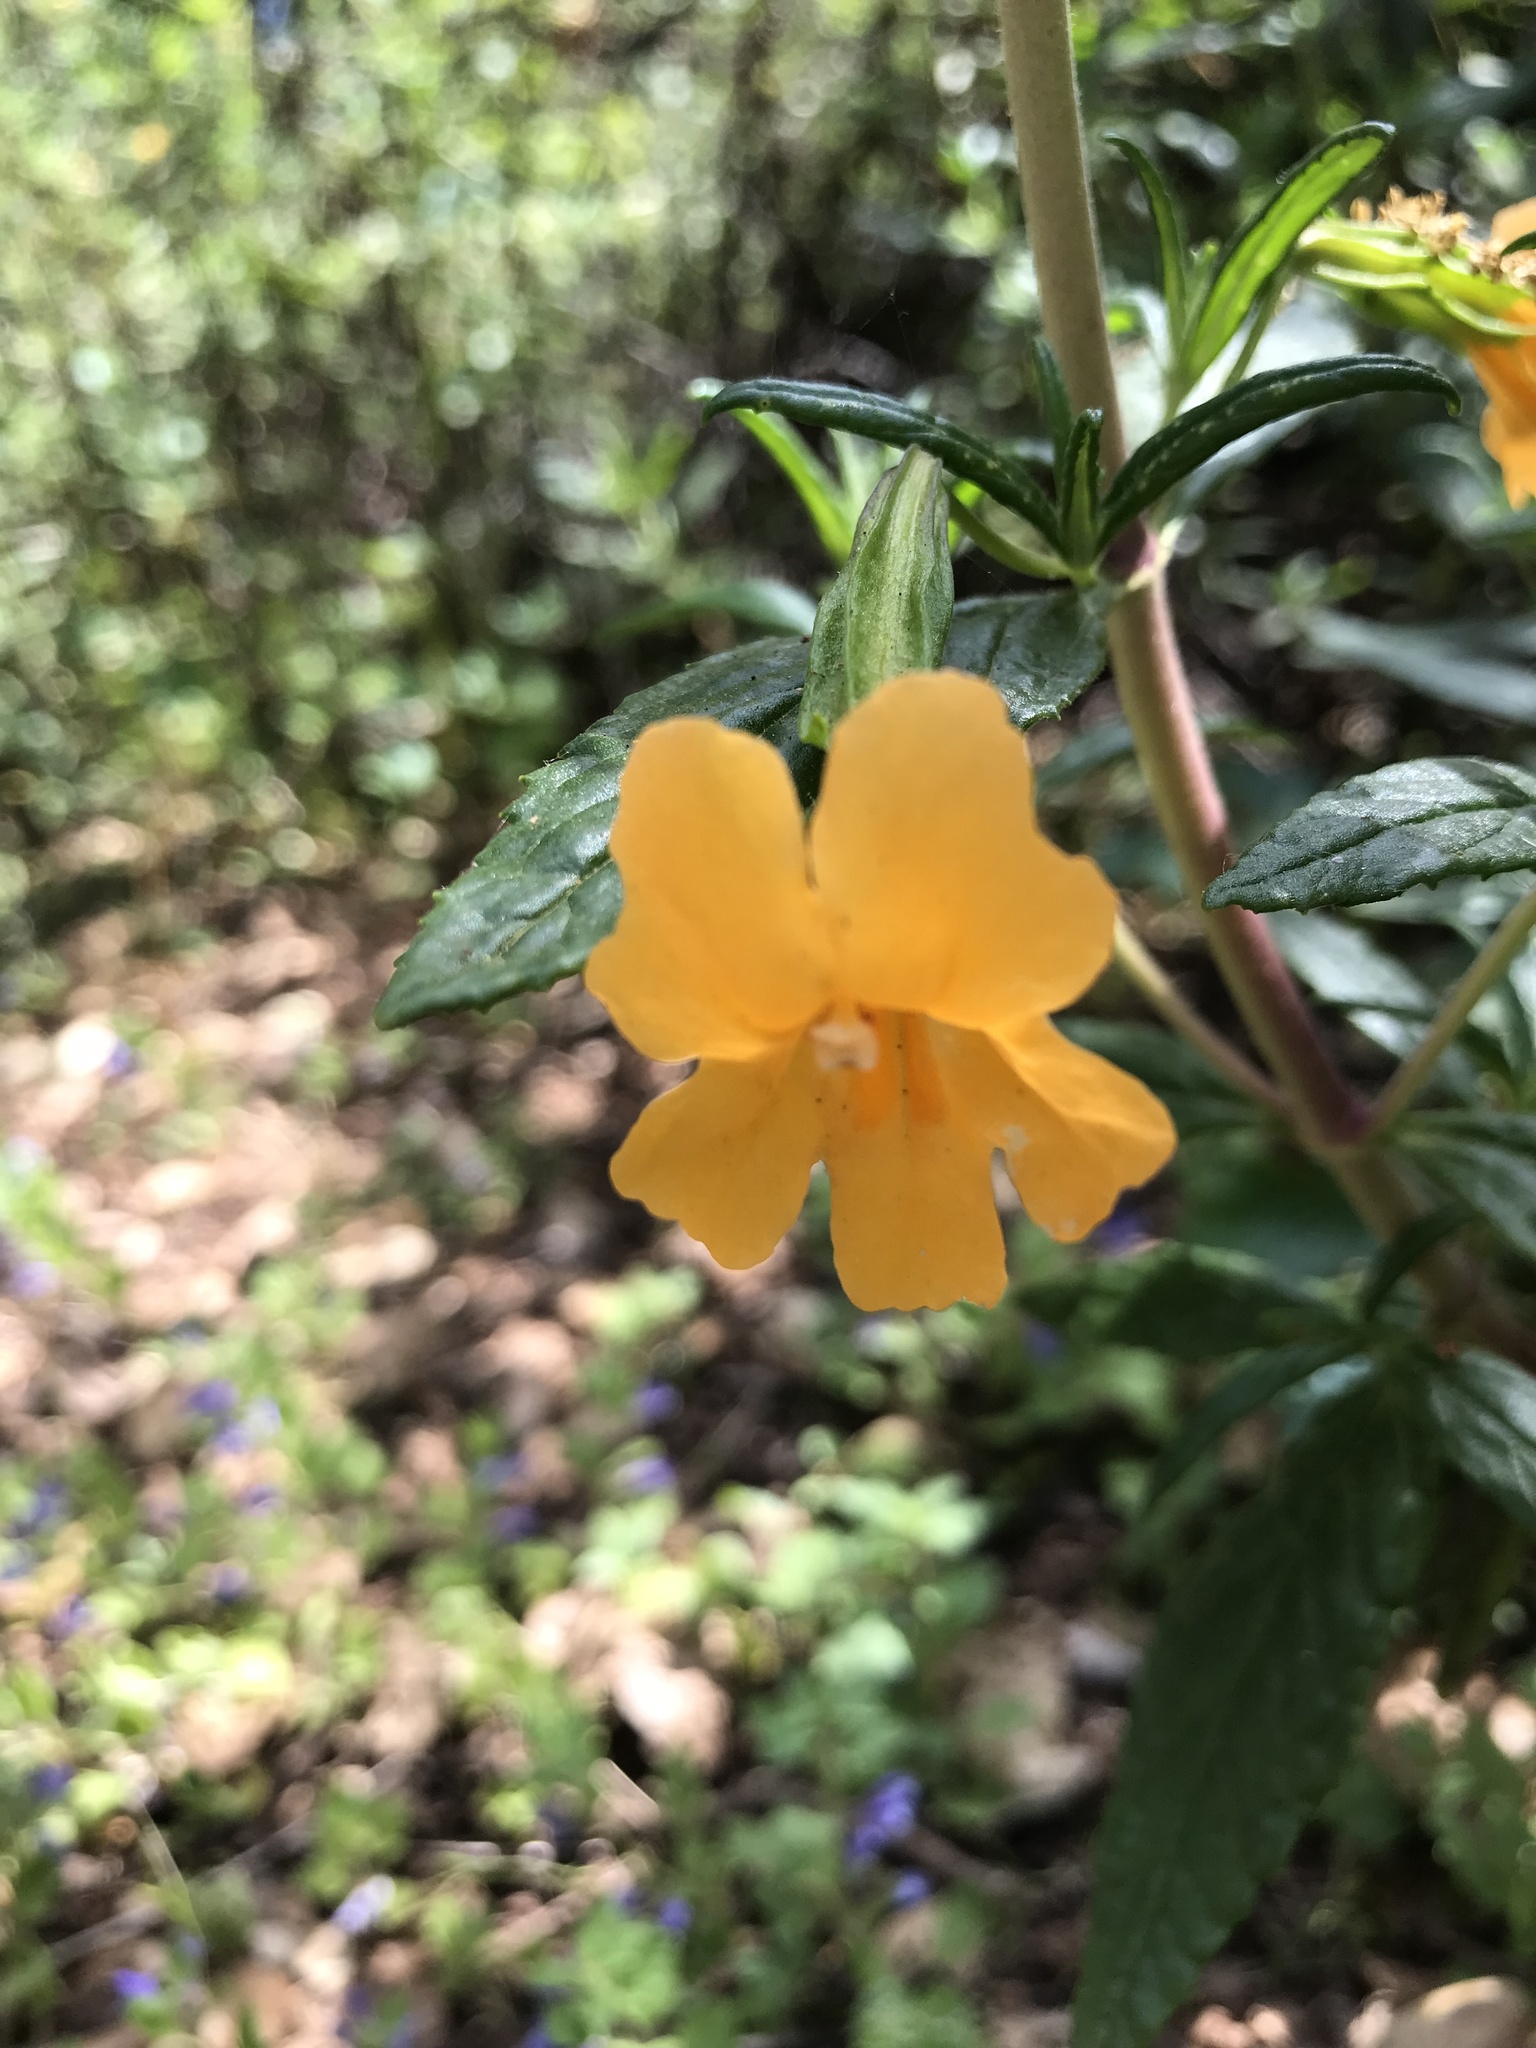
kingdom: Plantae
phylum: Tracheophyta
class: Magnoliopsida
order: Lamiales
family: Phrymaceae
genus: Diplacus
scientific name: Diplacus aurantiacus
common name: Bush monkey-flower
